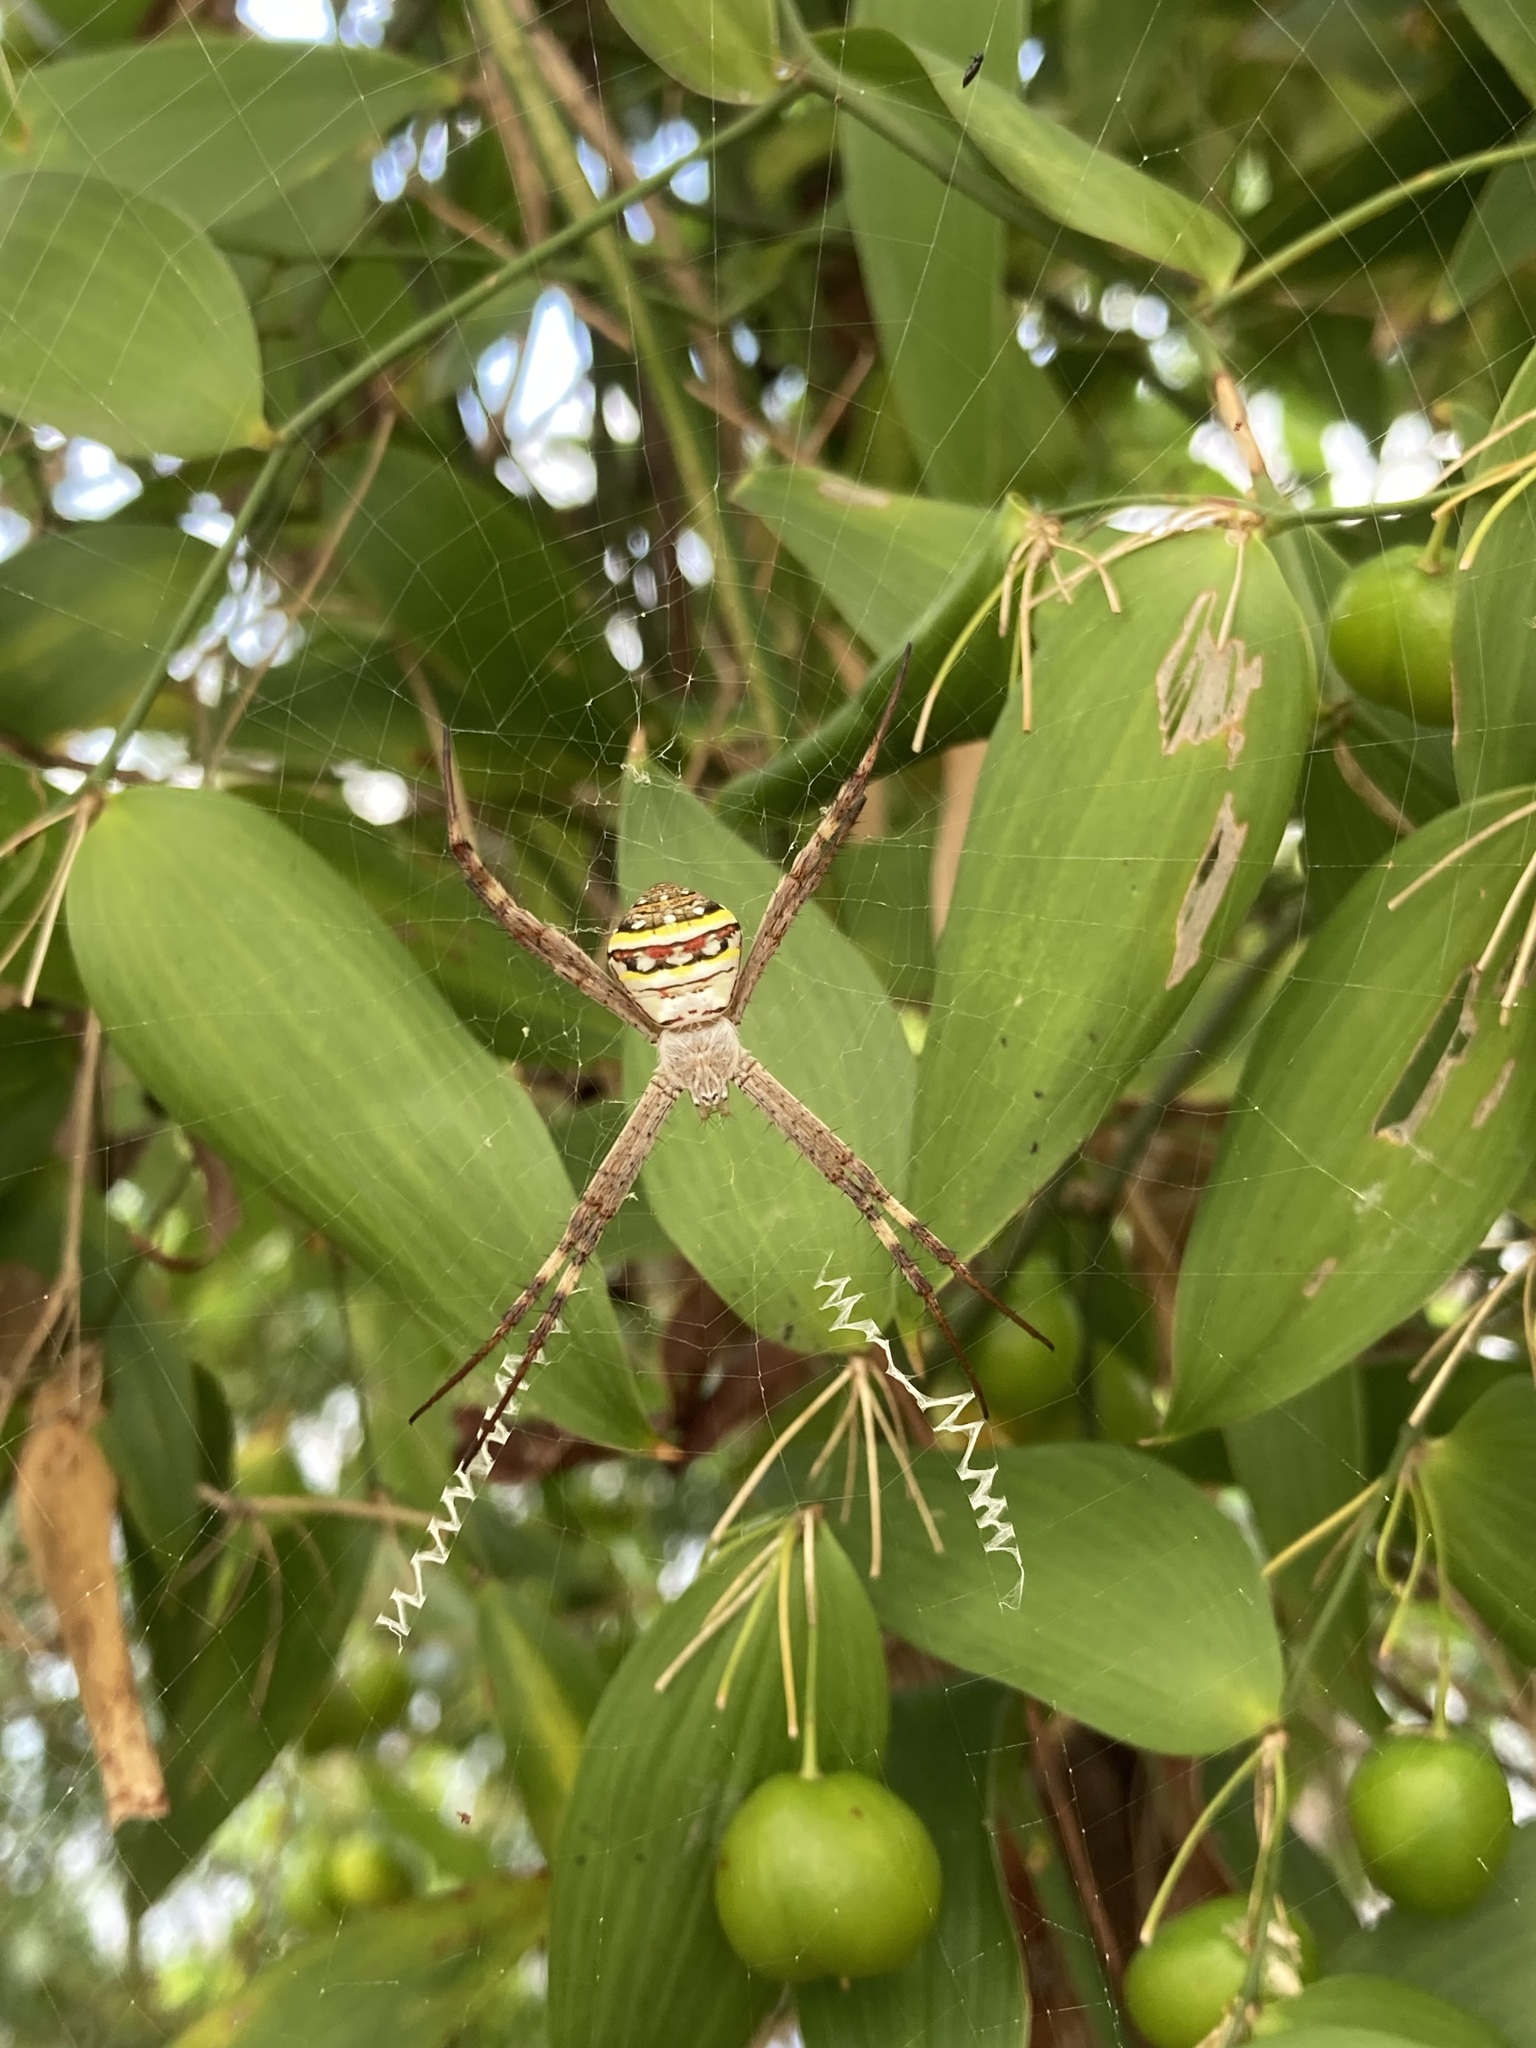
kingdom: Animalia
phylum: Arthropoda
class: Arachnida
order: Araneae
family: Araneidae
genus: Argiope
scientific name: Argiope keyserlingi
